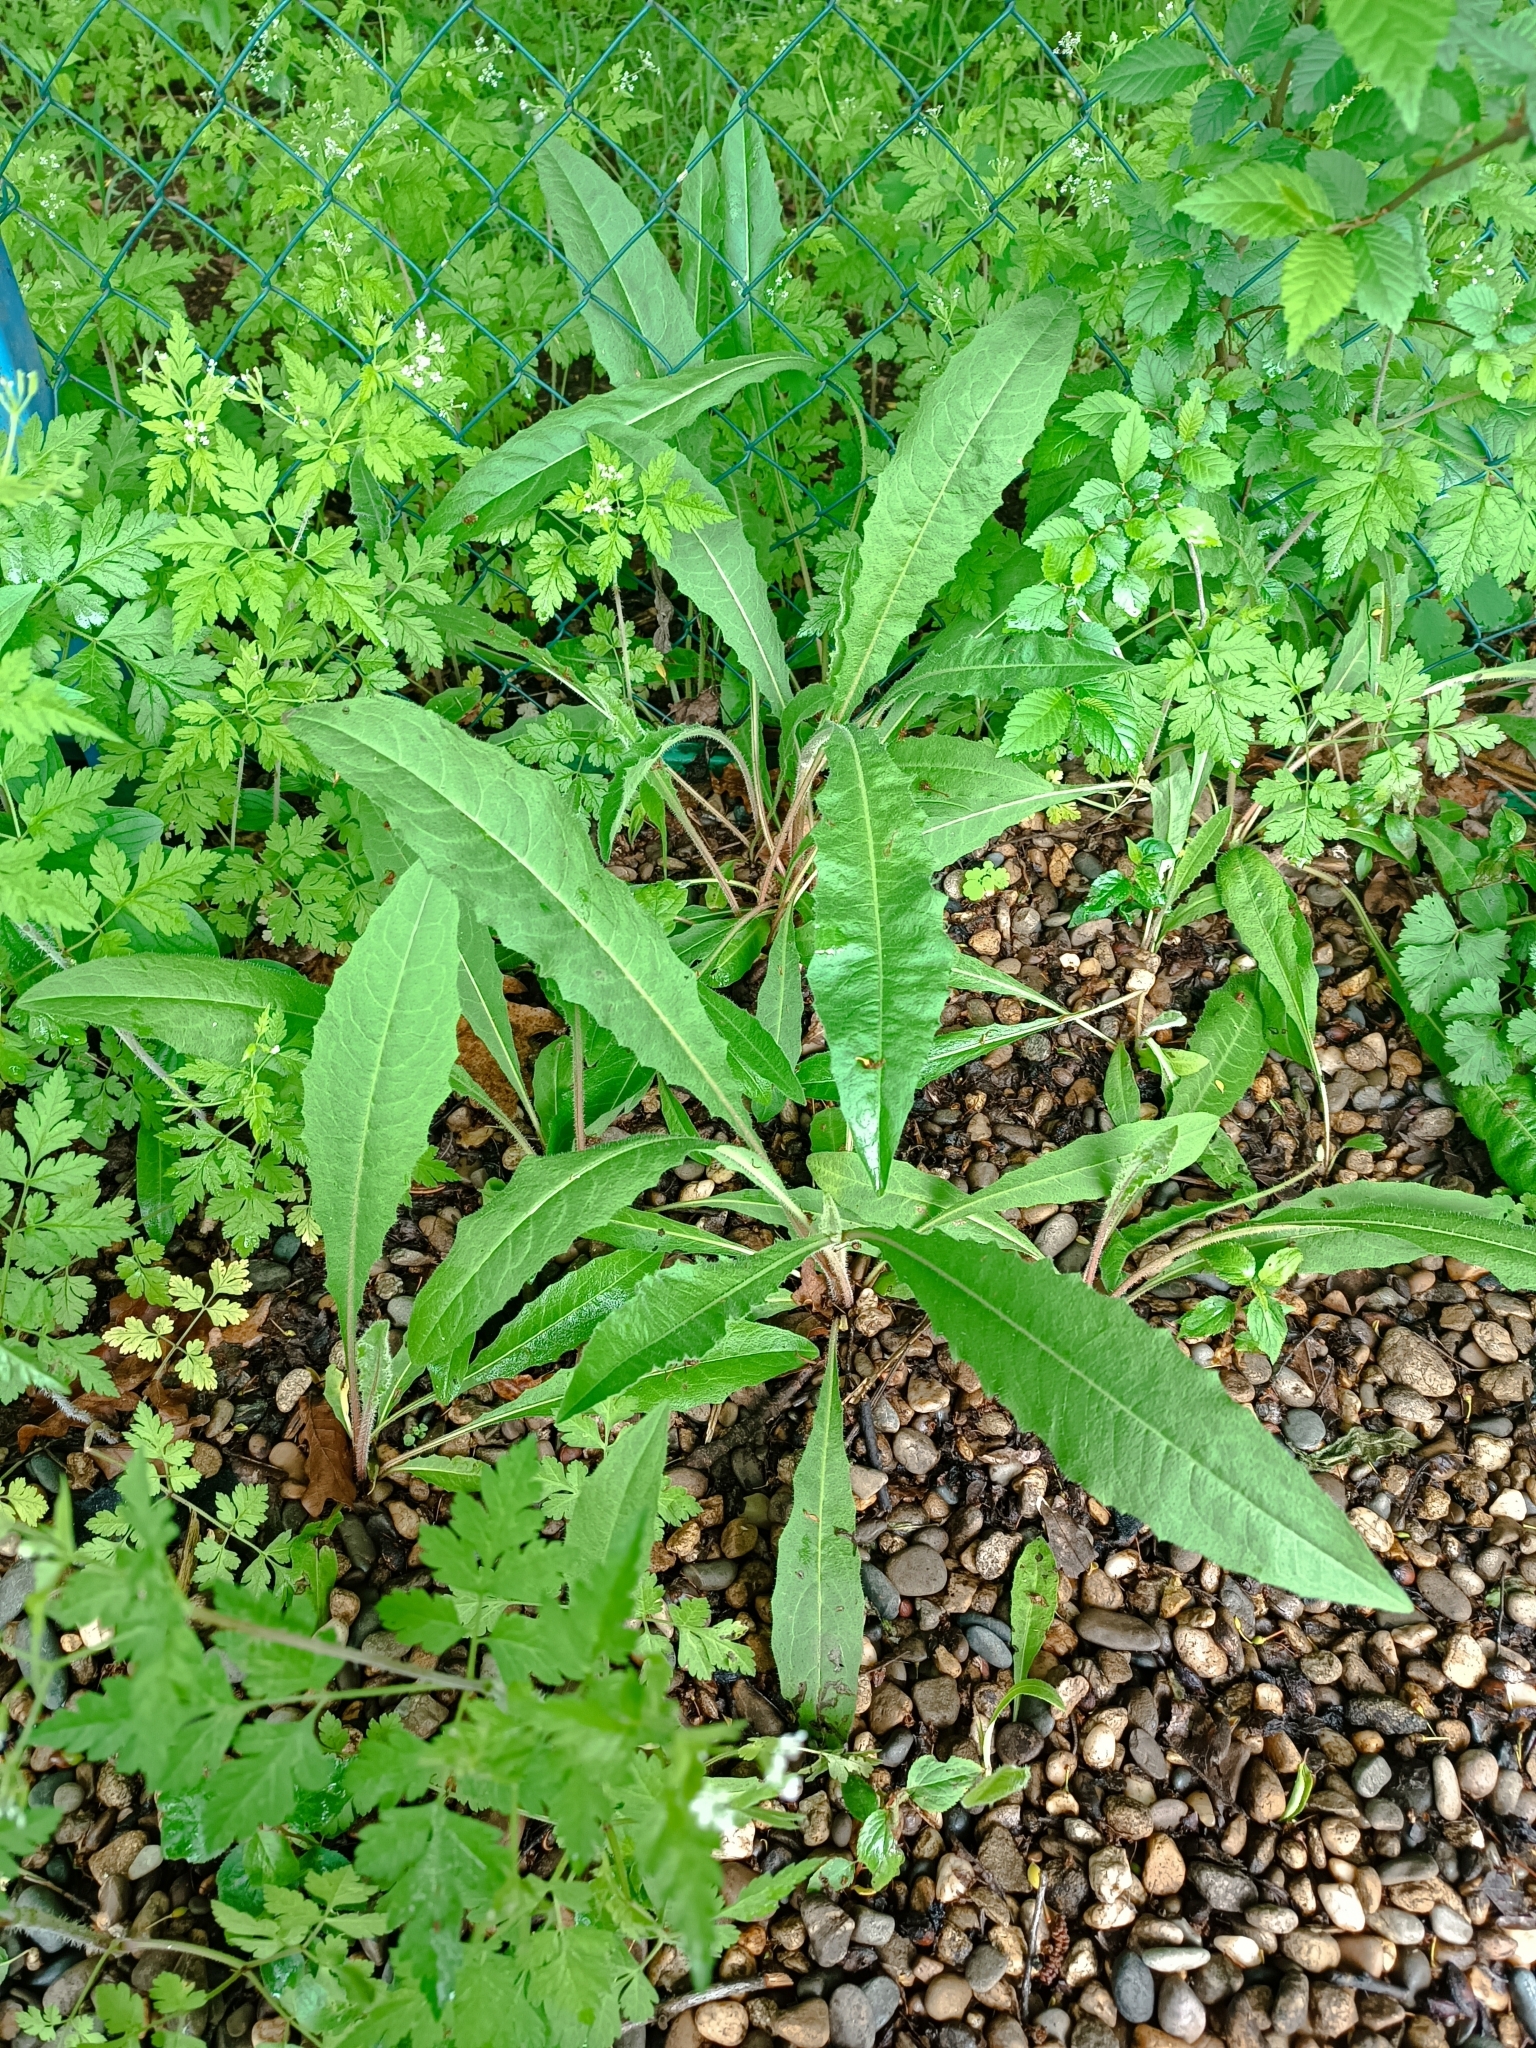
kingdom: Plantae
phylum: Tracheophyta
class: Magnoliopsida
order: Asterales
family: Asteraceae
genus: Picris
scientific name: Picris hieracioides
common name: Hawkweed oxtongue
